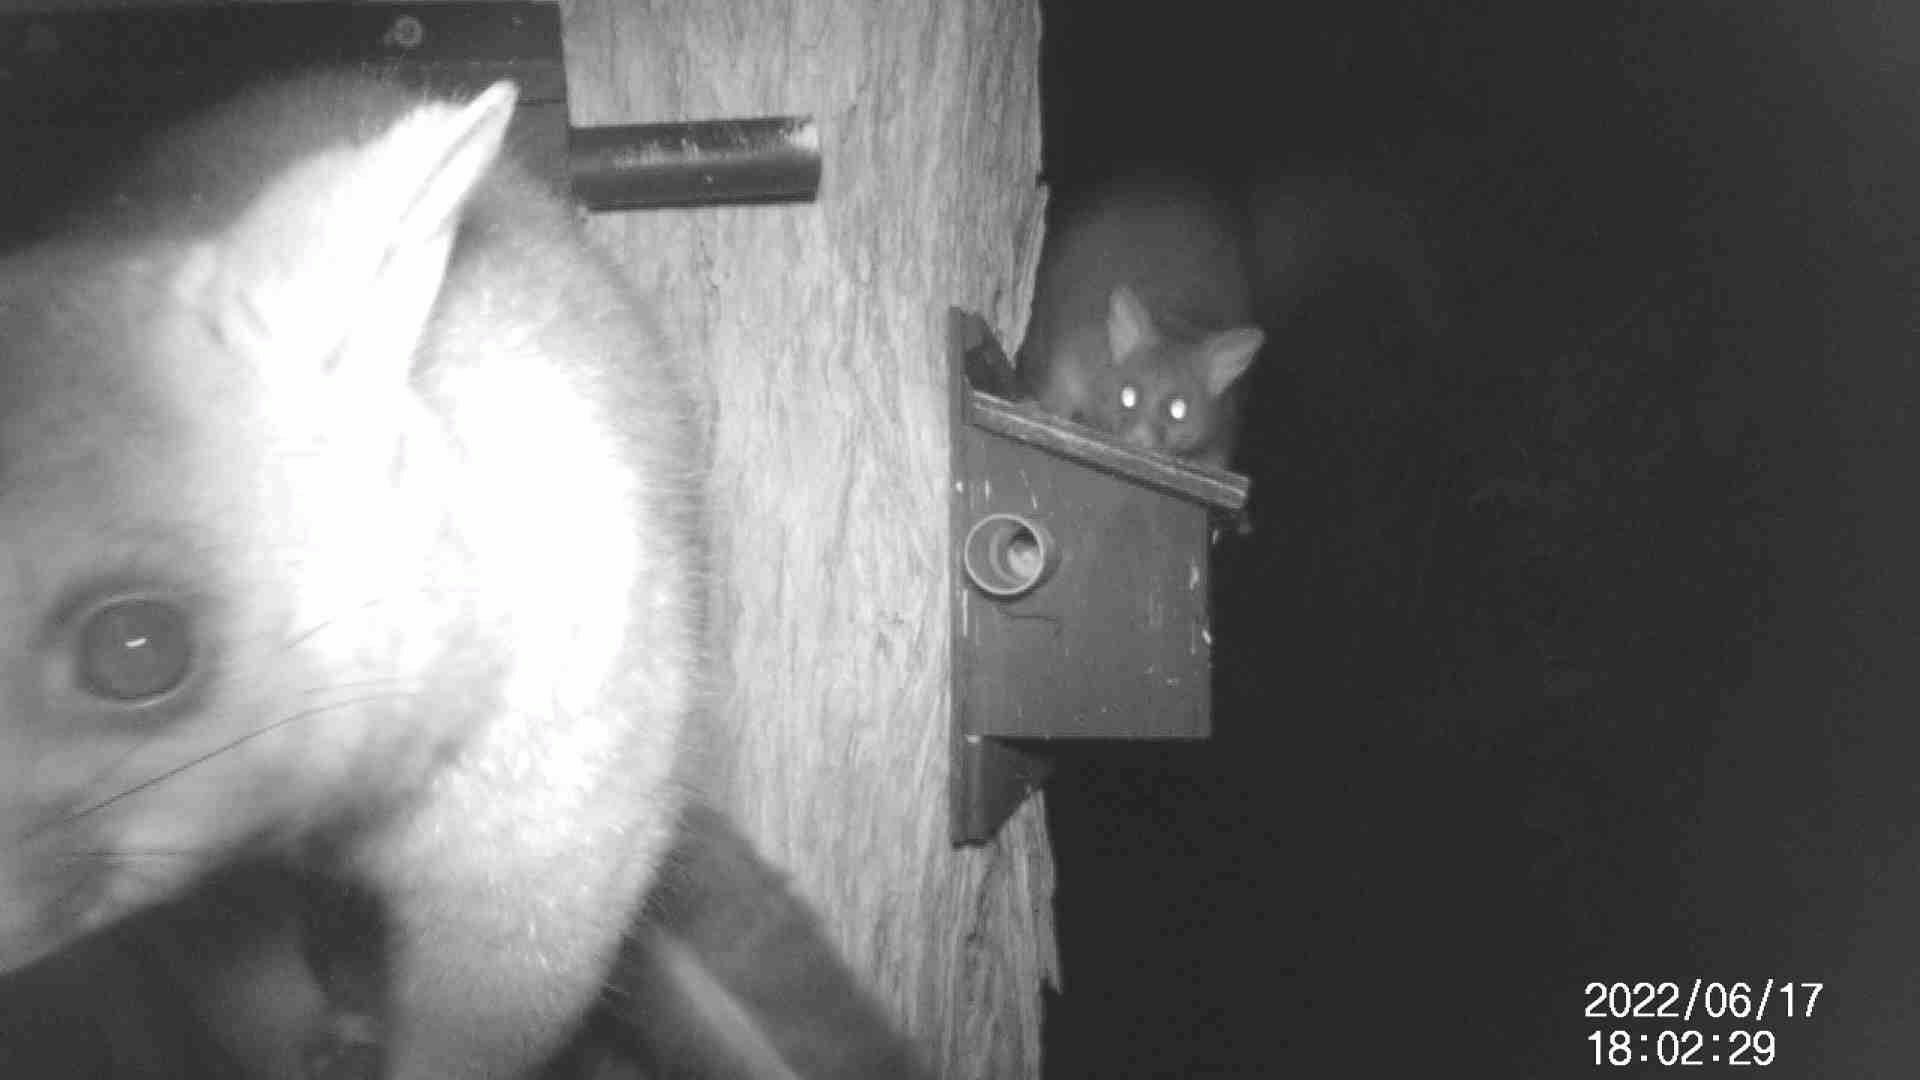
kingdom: Animalia
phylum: Chordata
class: Mammalia
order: Diprotodontia
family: Phalangeridae
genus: Trichosurus
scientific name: Trichosurus vulpecula
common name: Common brushtail
